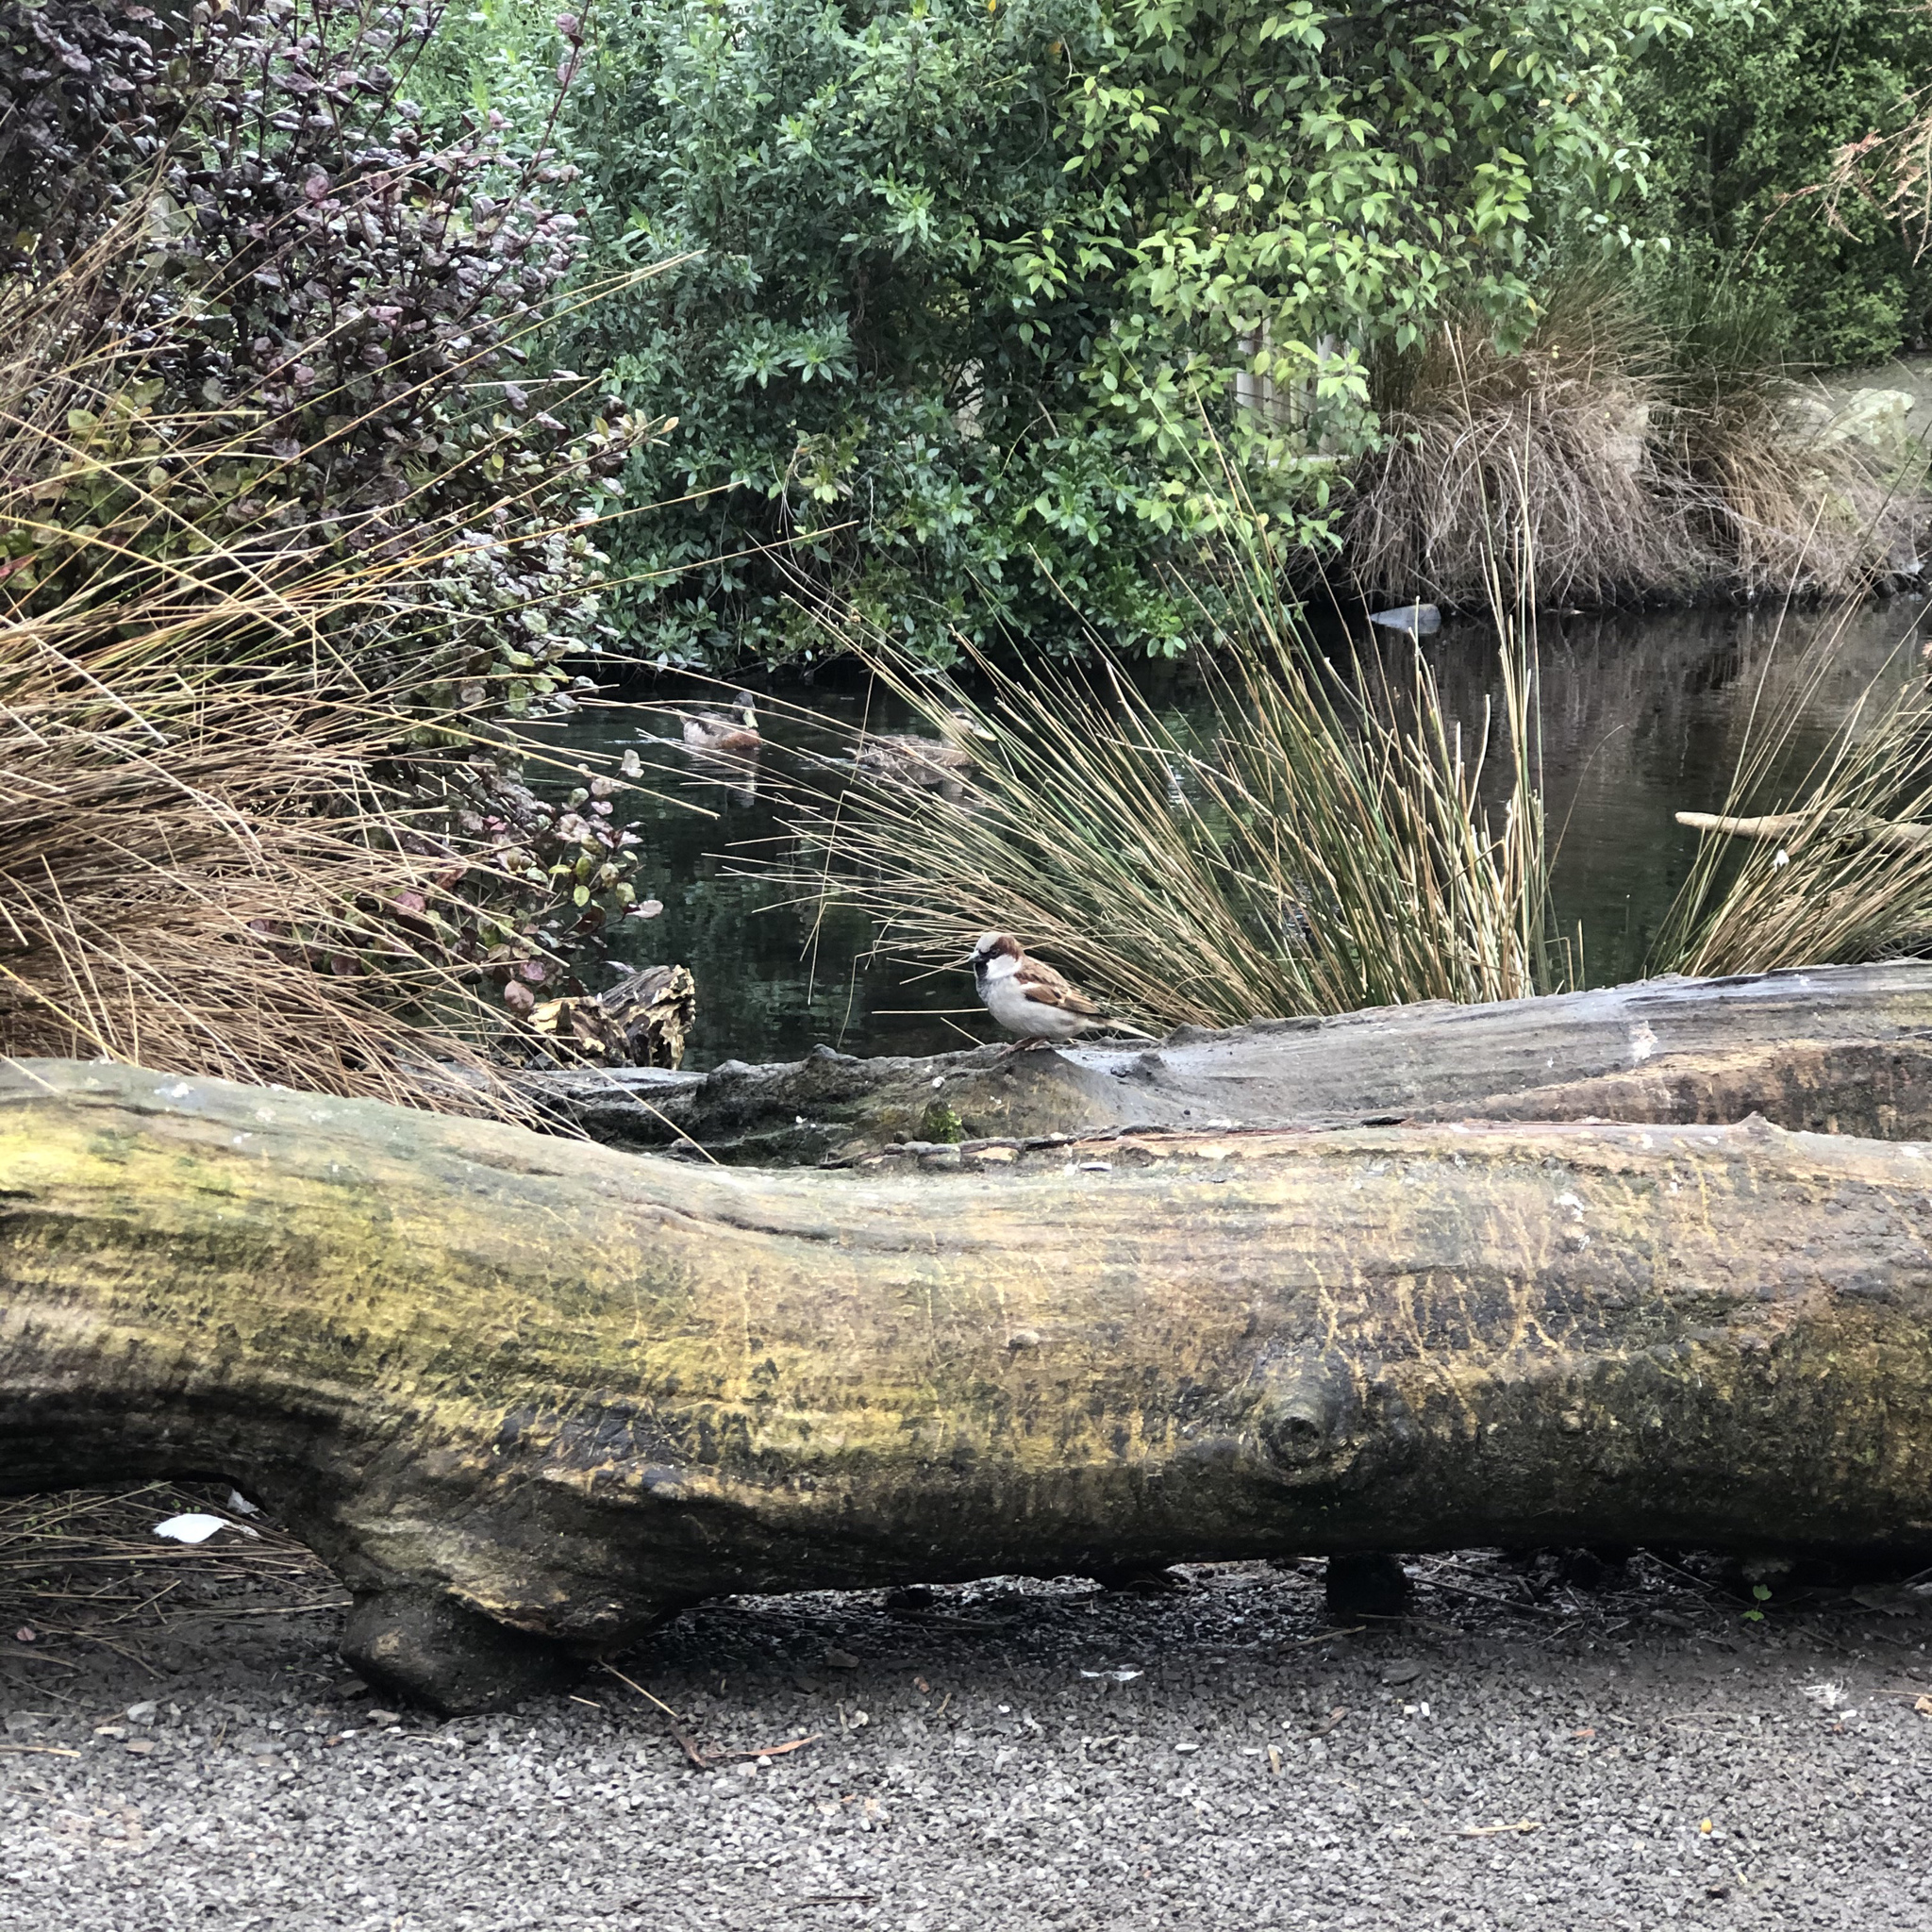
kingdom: Animalia
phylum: Chordata
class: Aves
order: Passeriformes
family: Passeridae
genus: Passer
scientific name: Passer domesticus
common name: House sparrow
